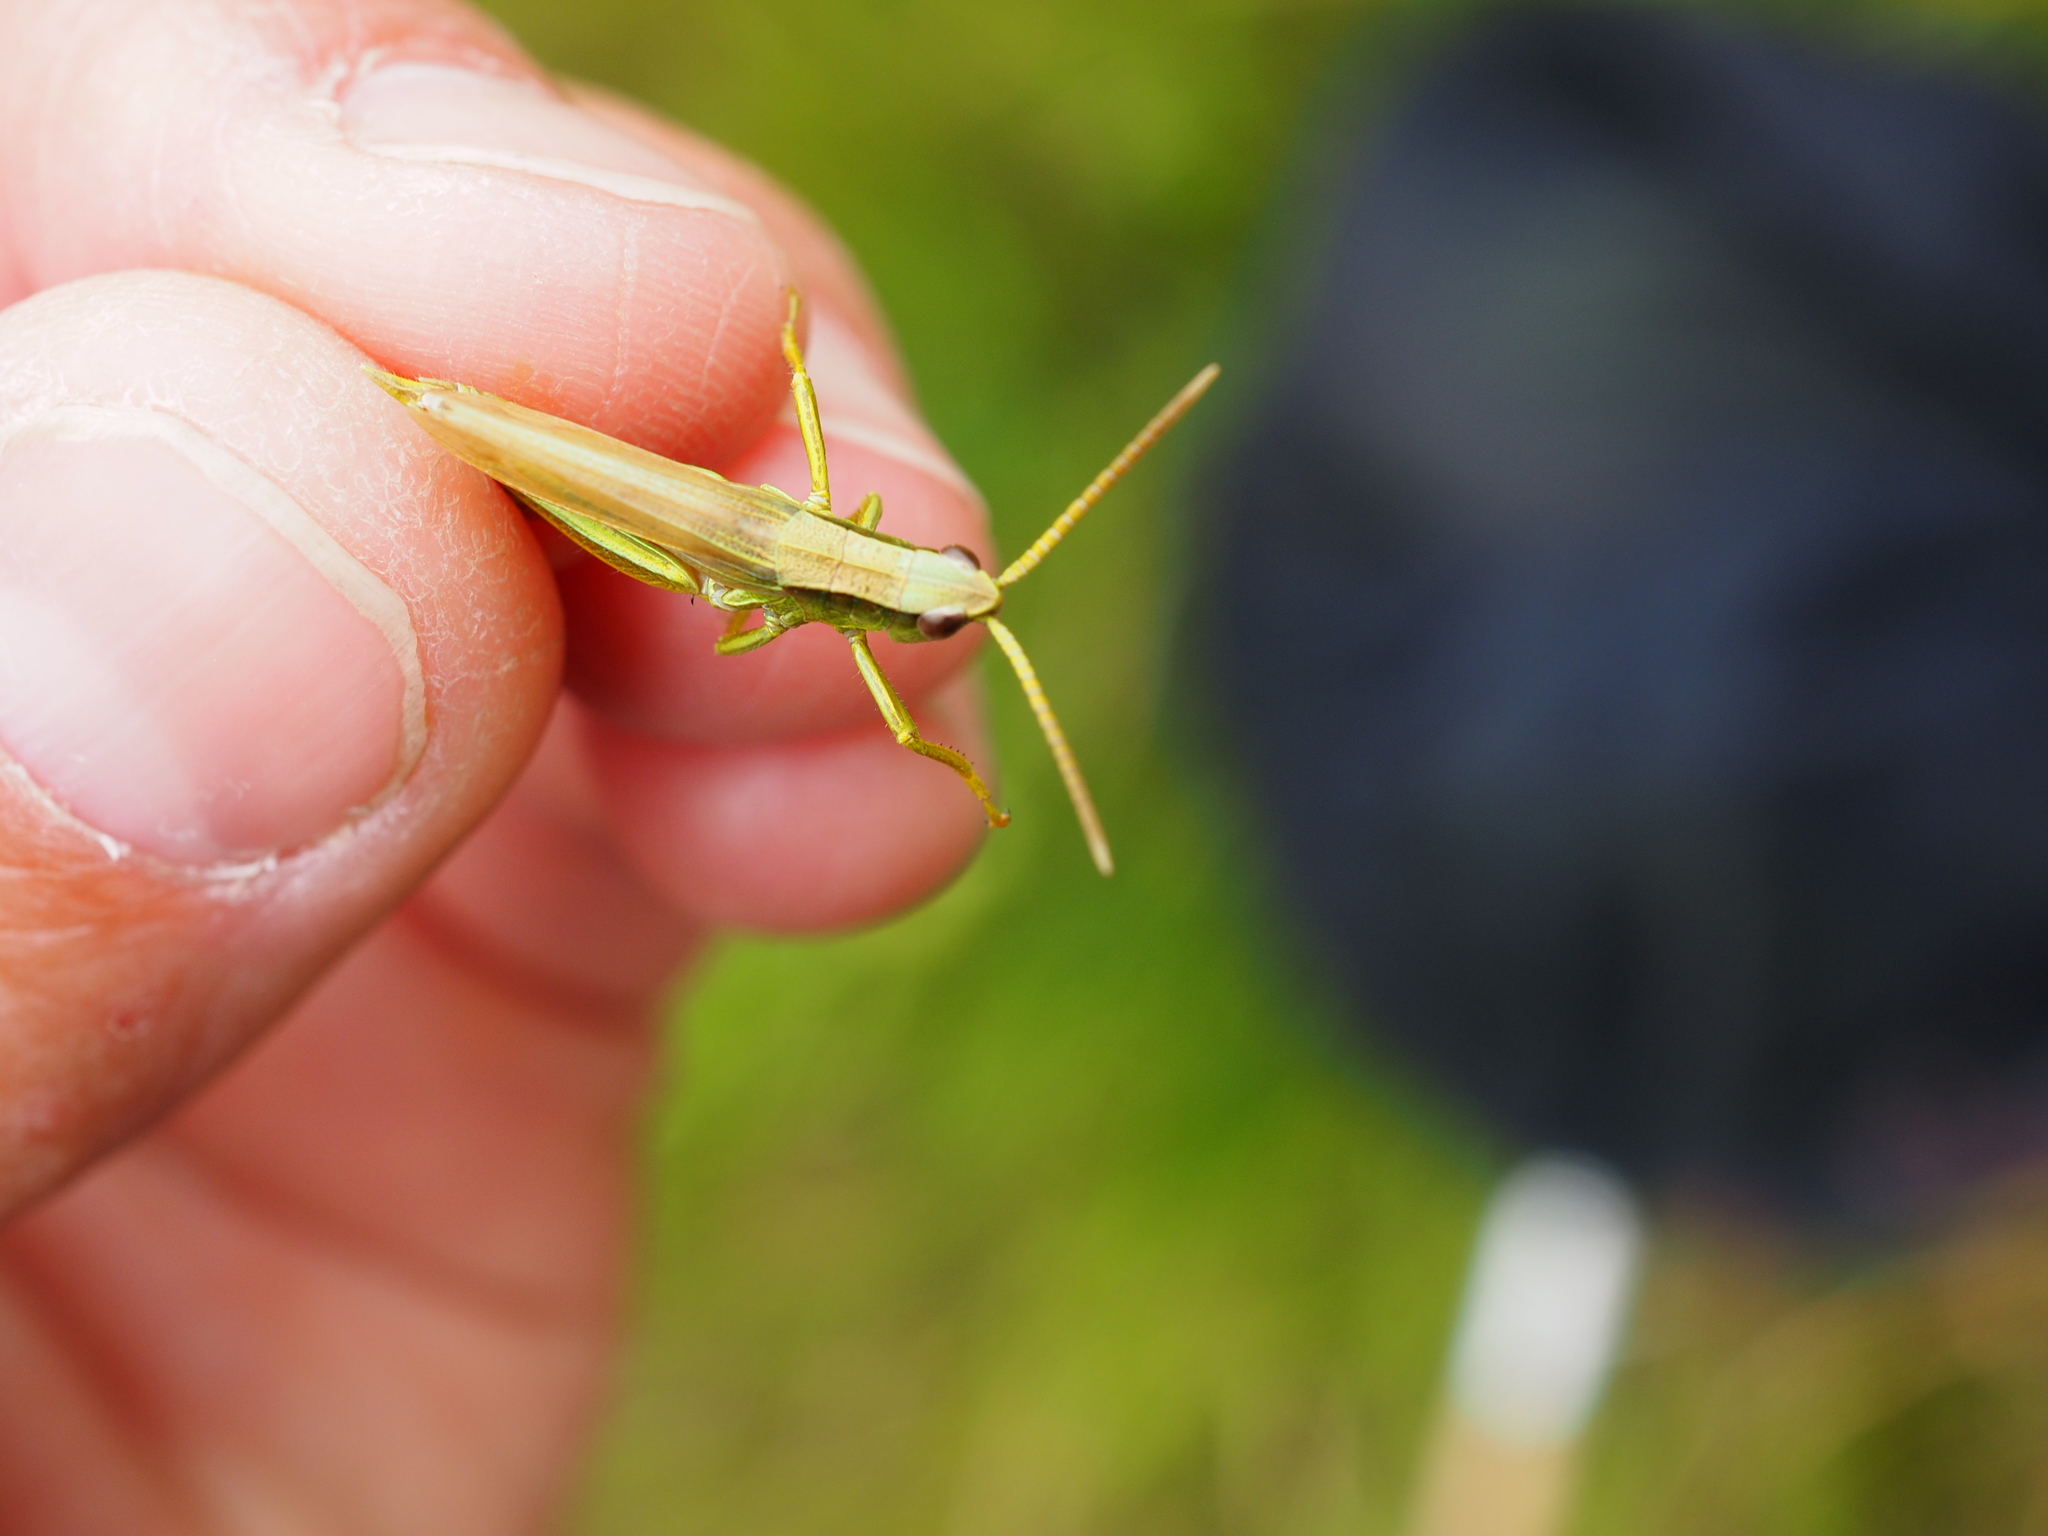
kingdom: Animalia
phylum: Arthropoda
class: Insecta
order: Orthoptera
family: Acrididae
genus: Chrysochraon
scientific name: Chrysochraon dispar
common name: Large gold grasshopper
